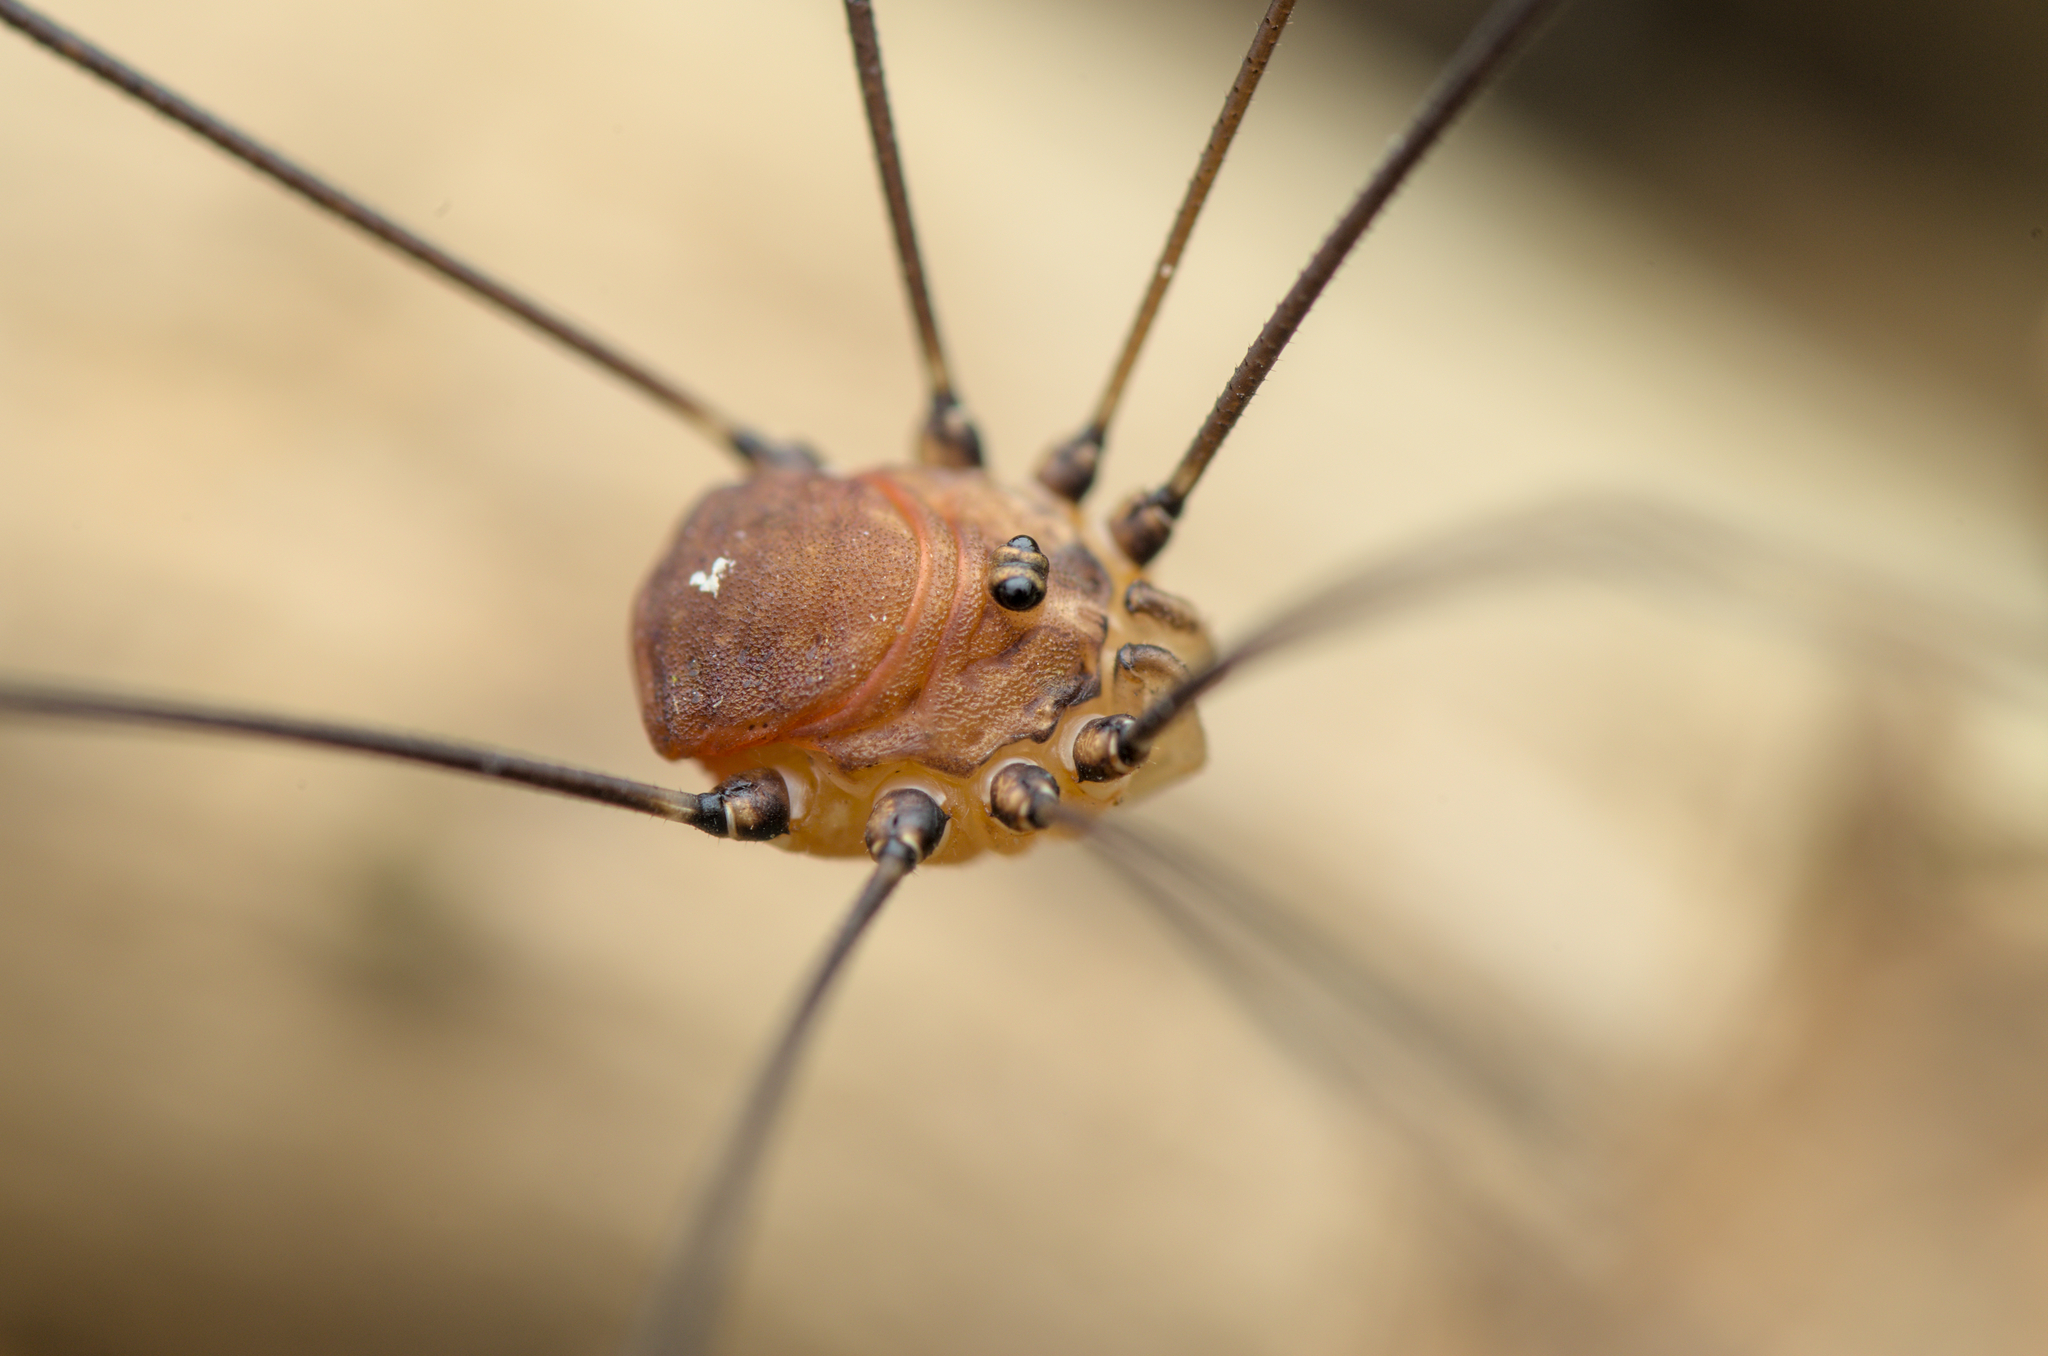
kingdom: Animalia
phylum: Arthropoda
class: Arachnida
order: Opiliones
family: Sclerosomatidae
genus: Leiobunum
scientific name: Leiobunum blackwalli
